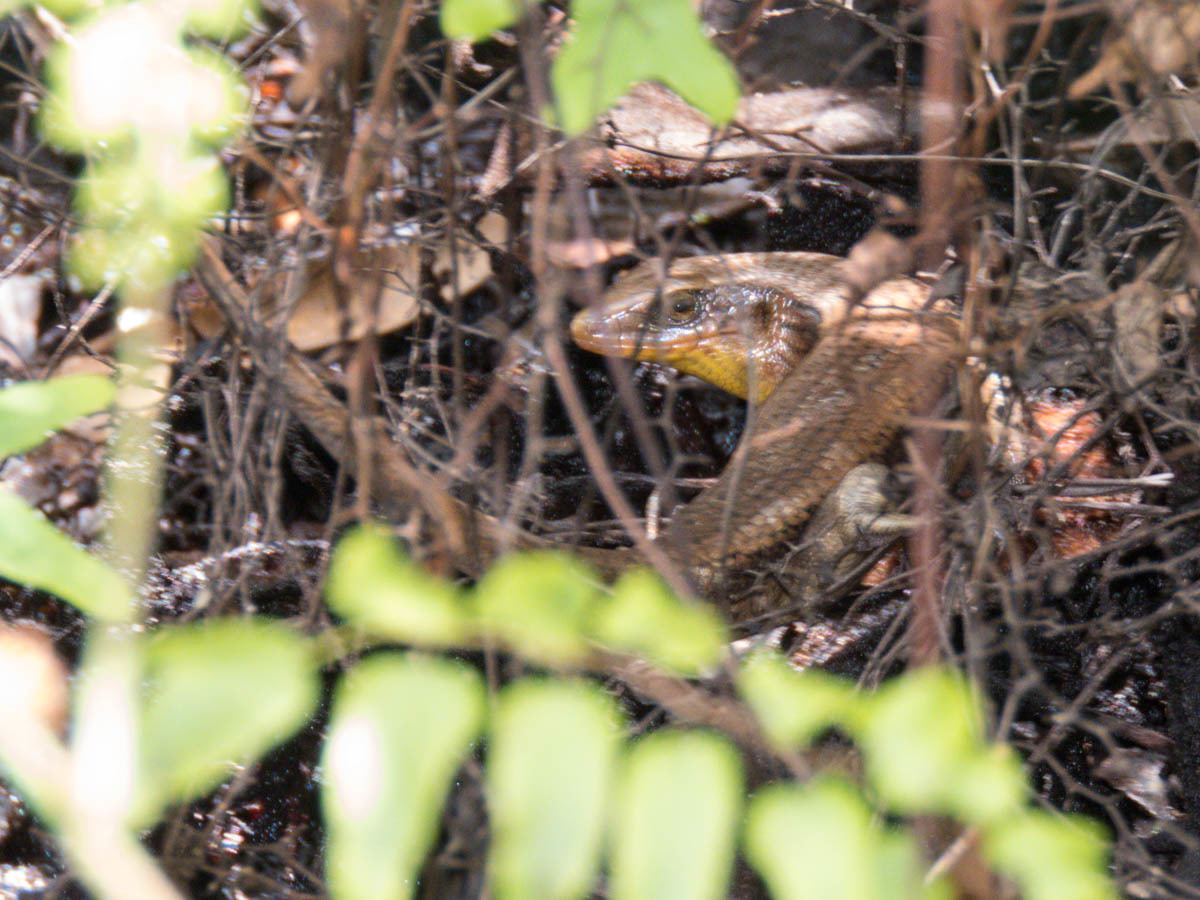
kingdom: Animalia
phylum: Chordata
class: Squamata
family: Scincidae
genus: Eutropis
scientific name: Eutropis multifasciata
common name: Common mabuya
